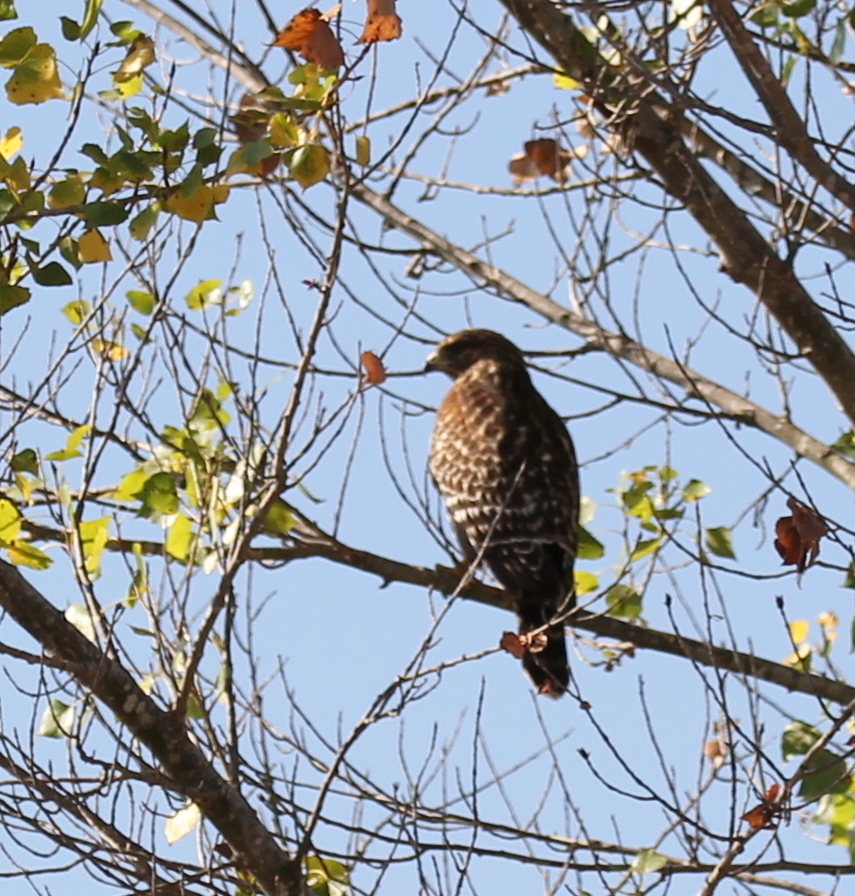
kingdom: Animalia
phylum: Chordata
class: Aves
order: Accipitriformes
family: Accipitridae
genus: Buteo
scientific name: Buteo lineatus
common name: Red-shouldered hawk
